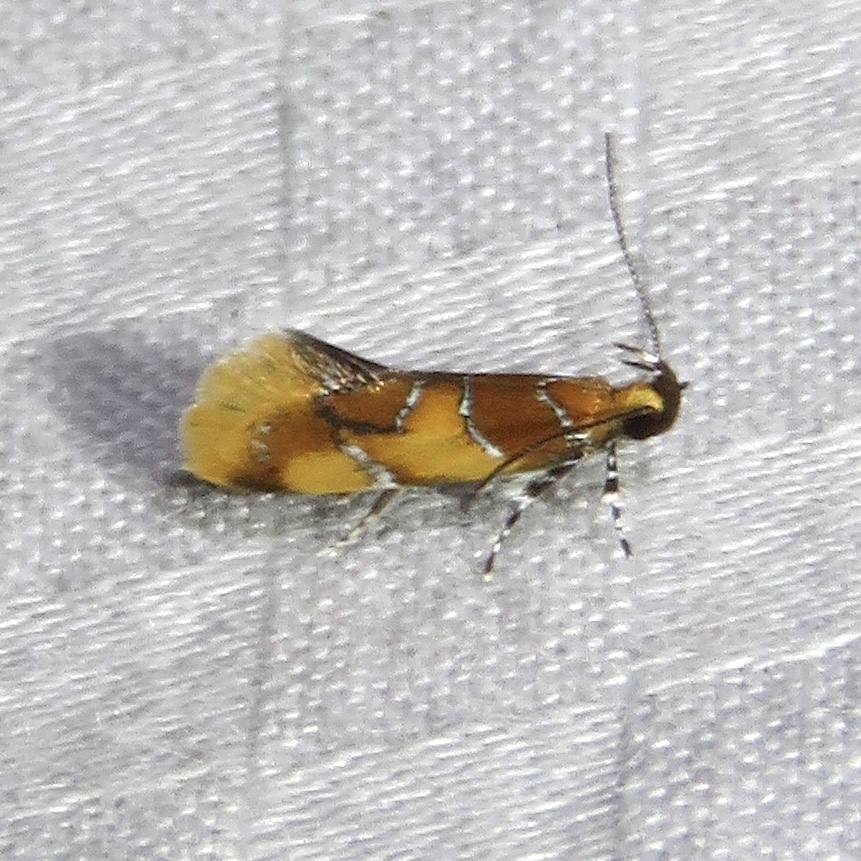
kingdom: Animalia
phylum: Arthropoda
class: Insecta
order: Lepidoptera
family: Oecophoridae
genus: Callima
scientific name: Callima argenticinctella
